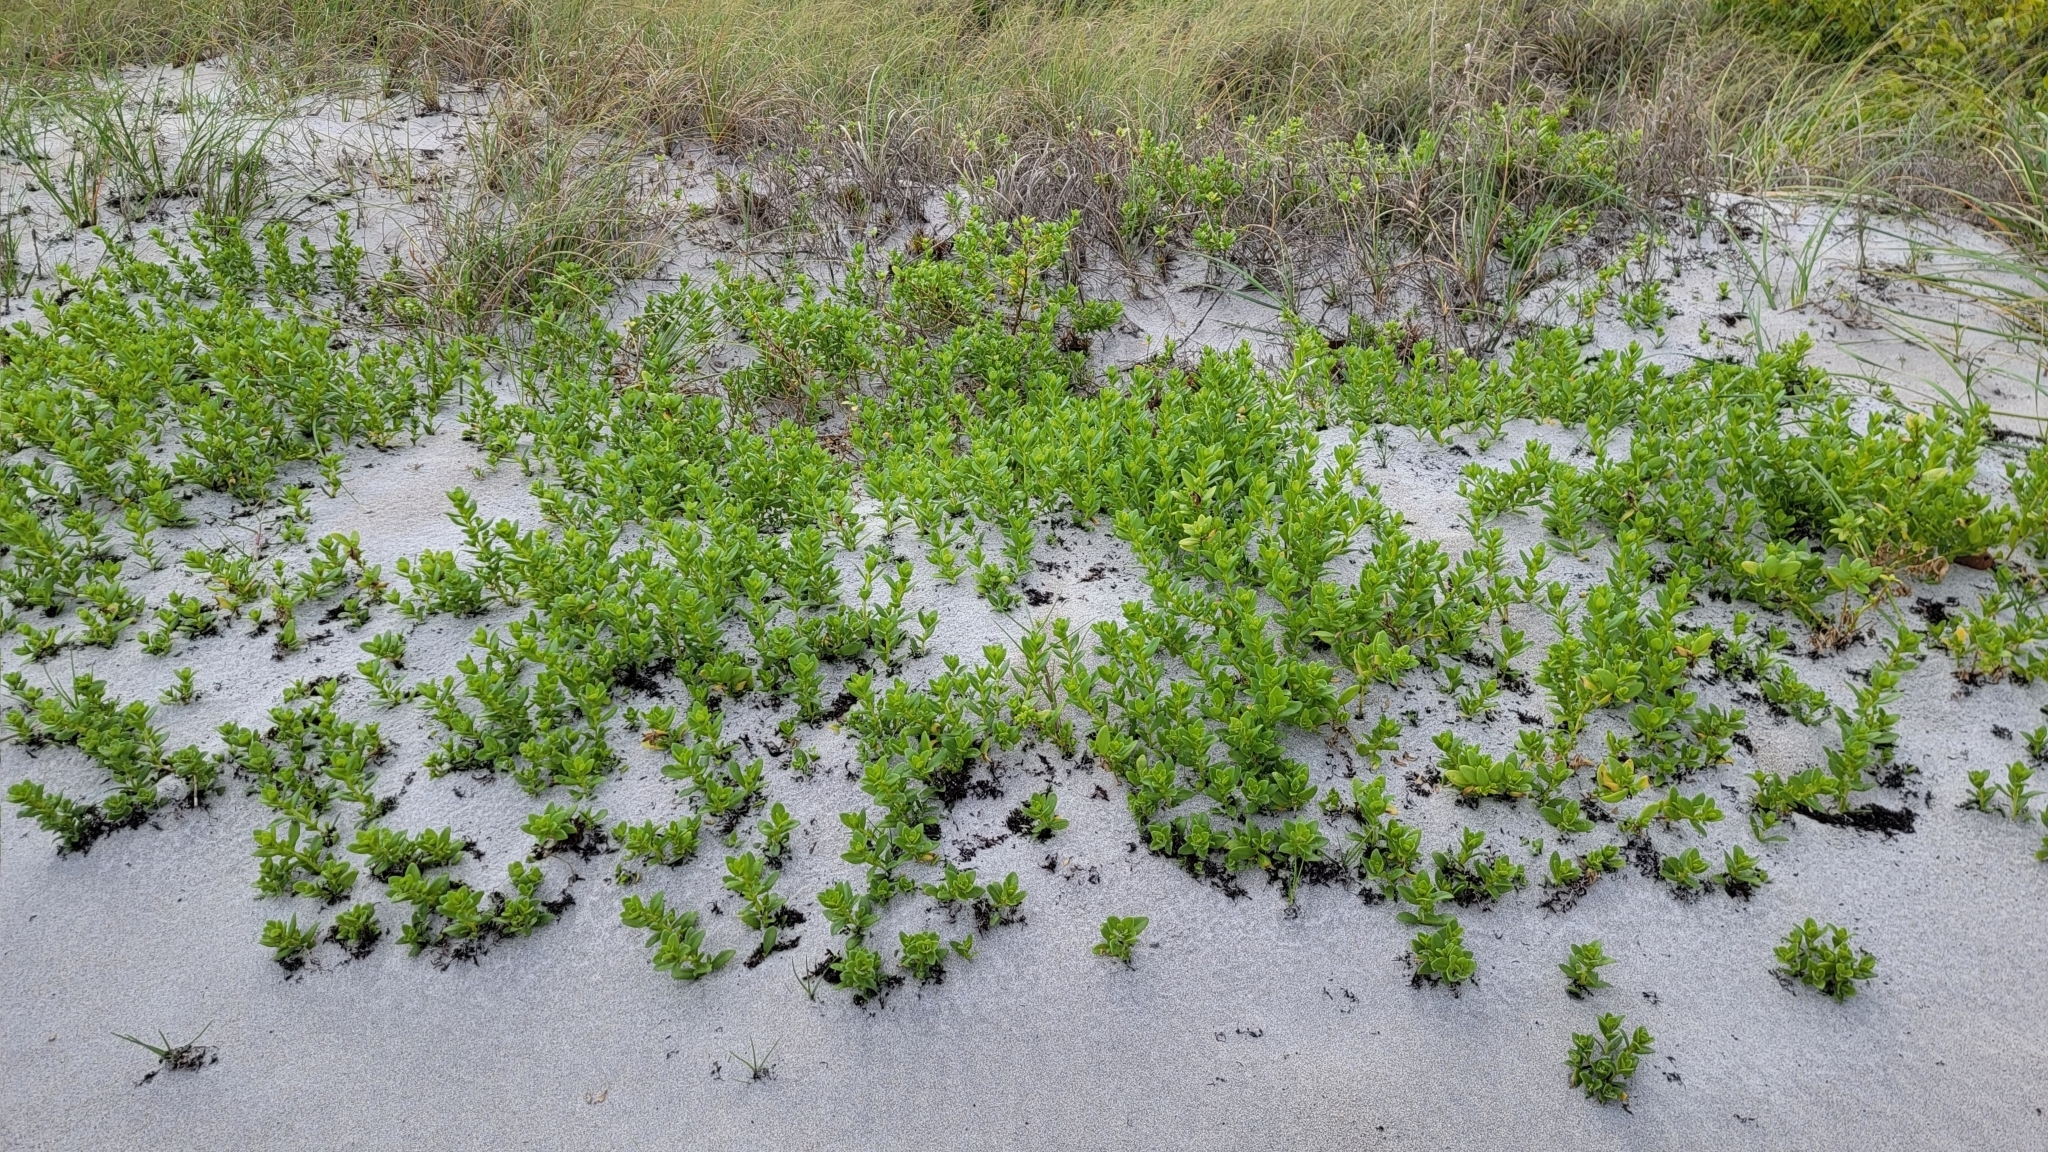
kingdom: Plantae
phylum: Tracheophyta
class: Magnoliopsida
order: Asterales
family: Asteraceae
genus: Iva
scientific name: Iva imbricata
